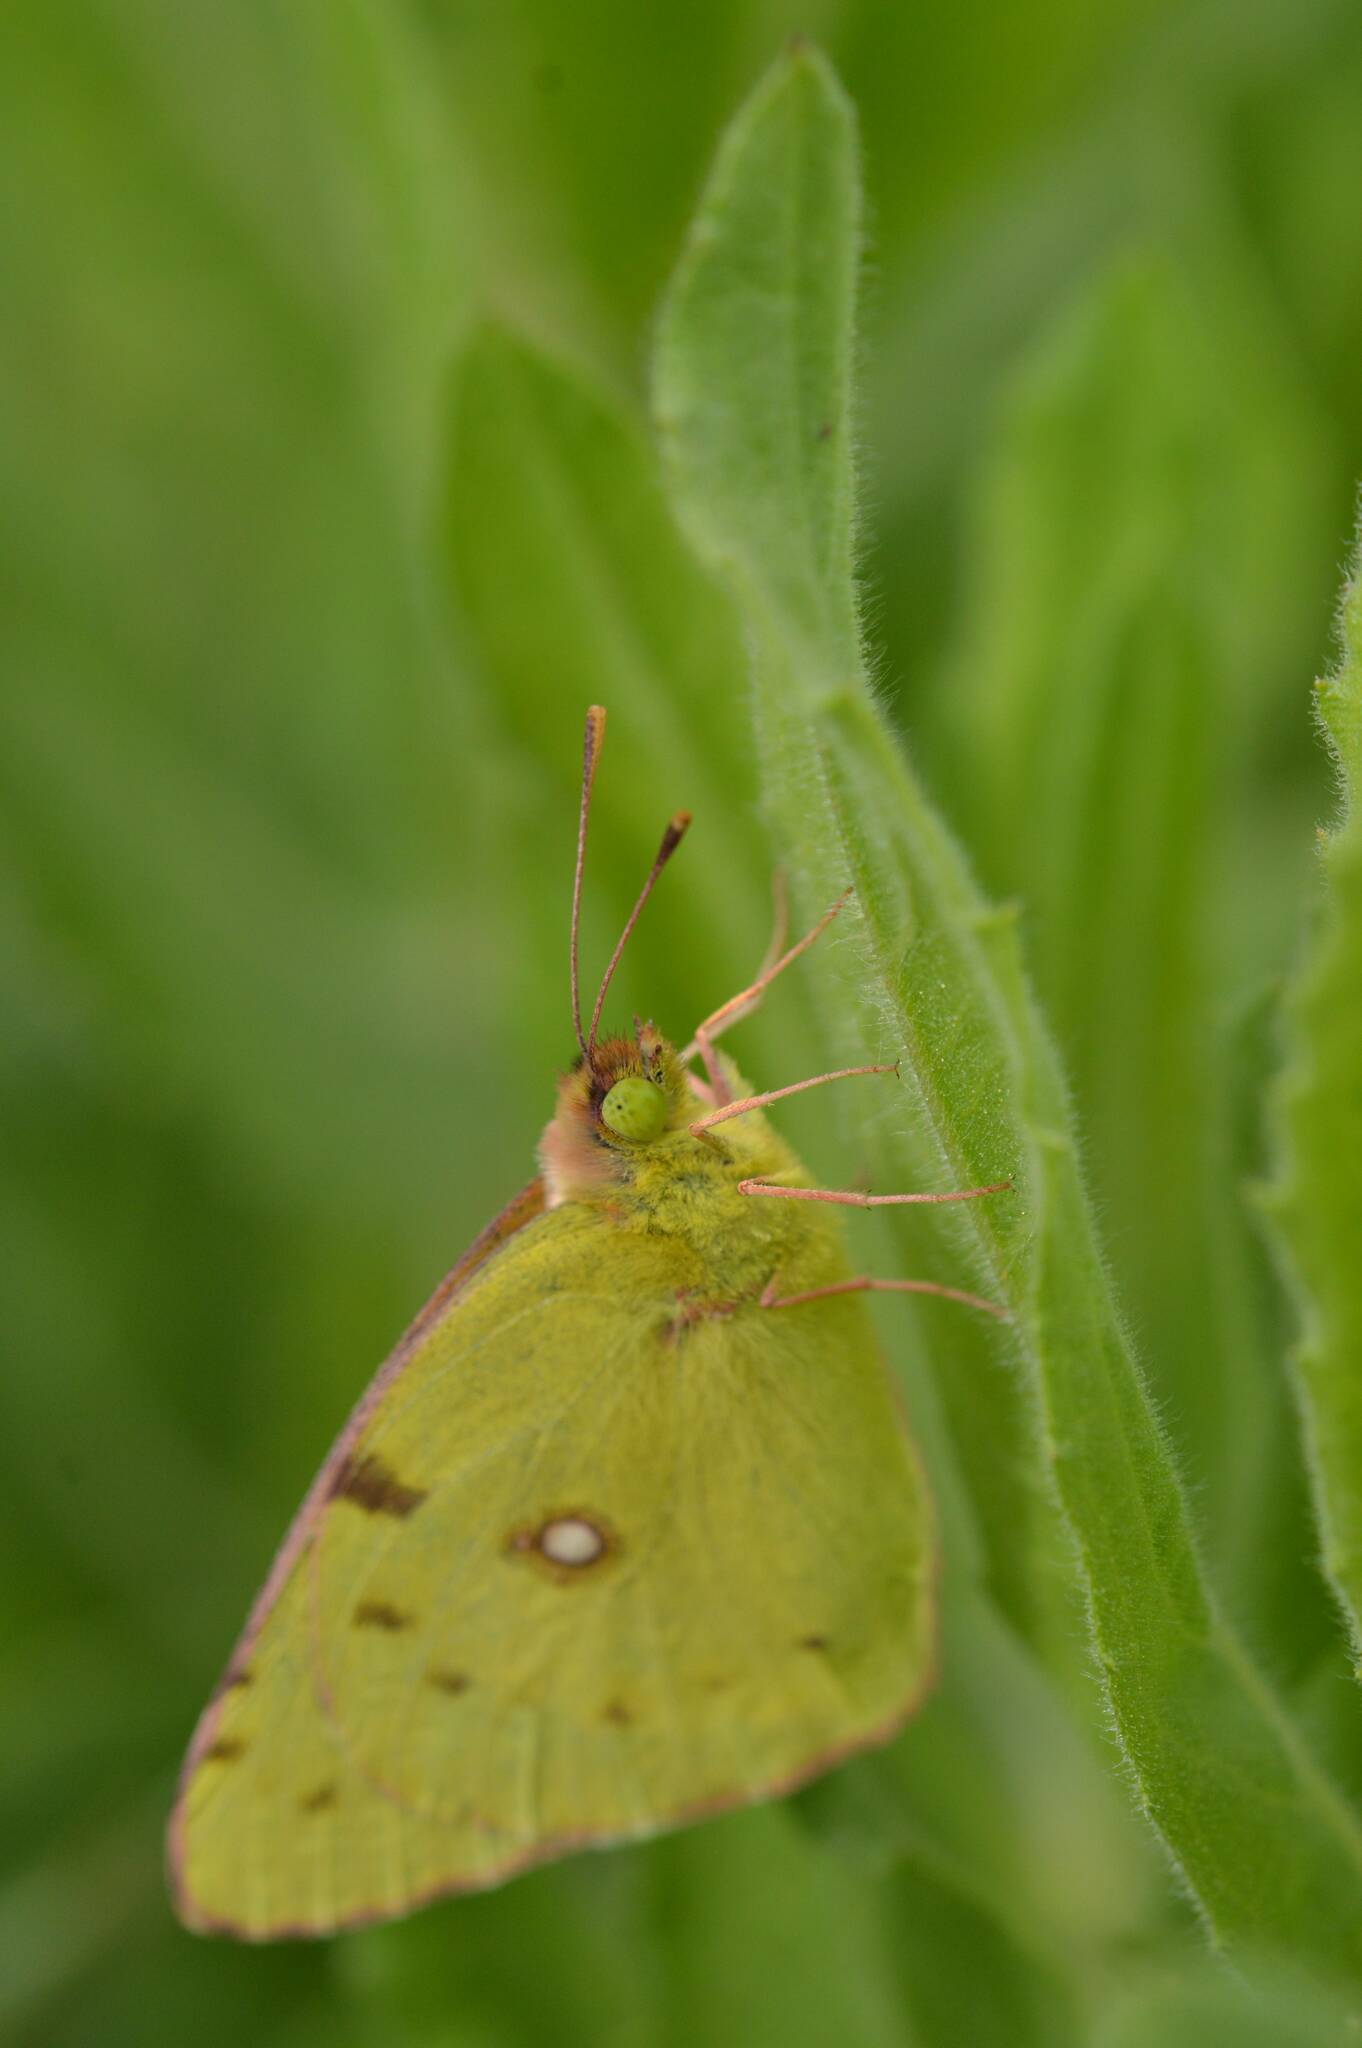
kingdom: Animalia
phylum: Arthropoda
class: Insecta
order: Lepidoptera
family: Pieridae
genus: Colias
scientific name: Colias croceus
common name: Clouded yellow
